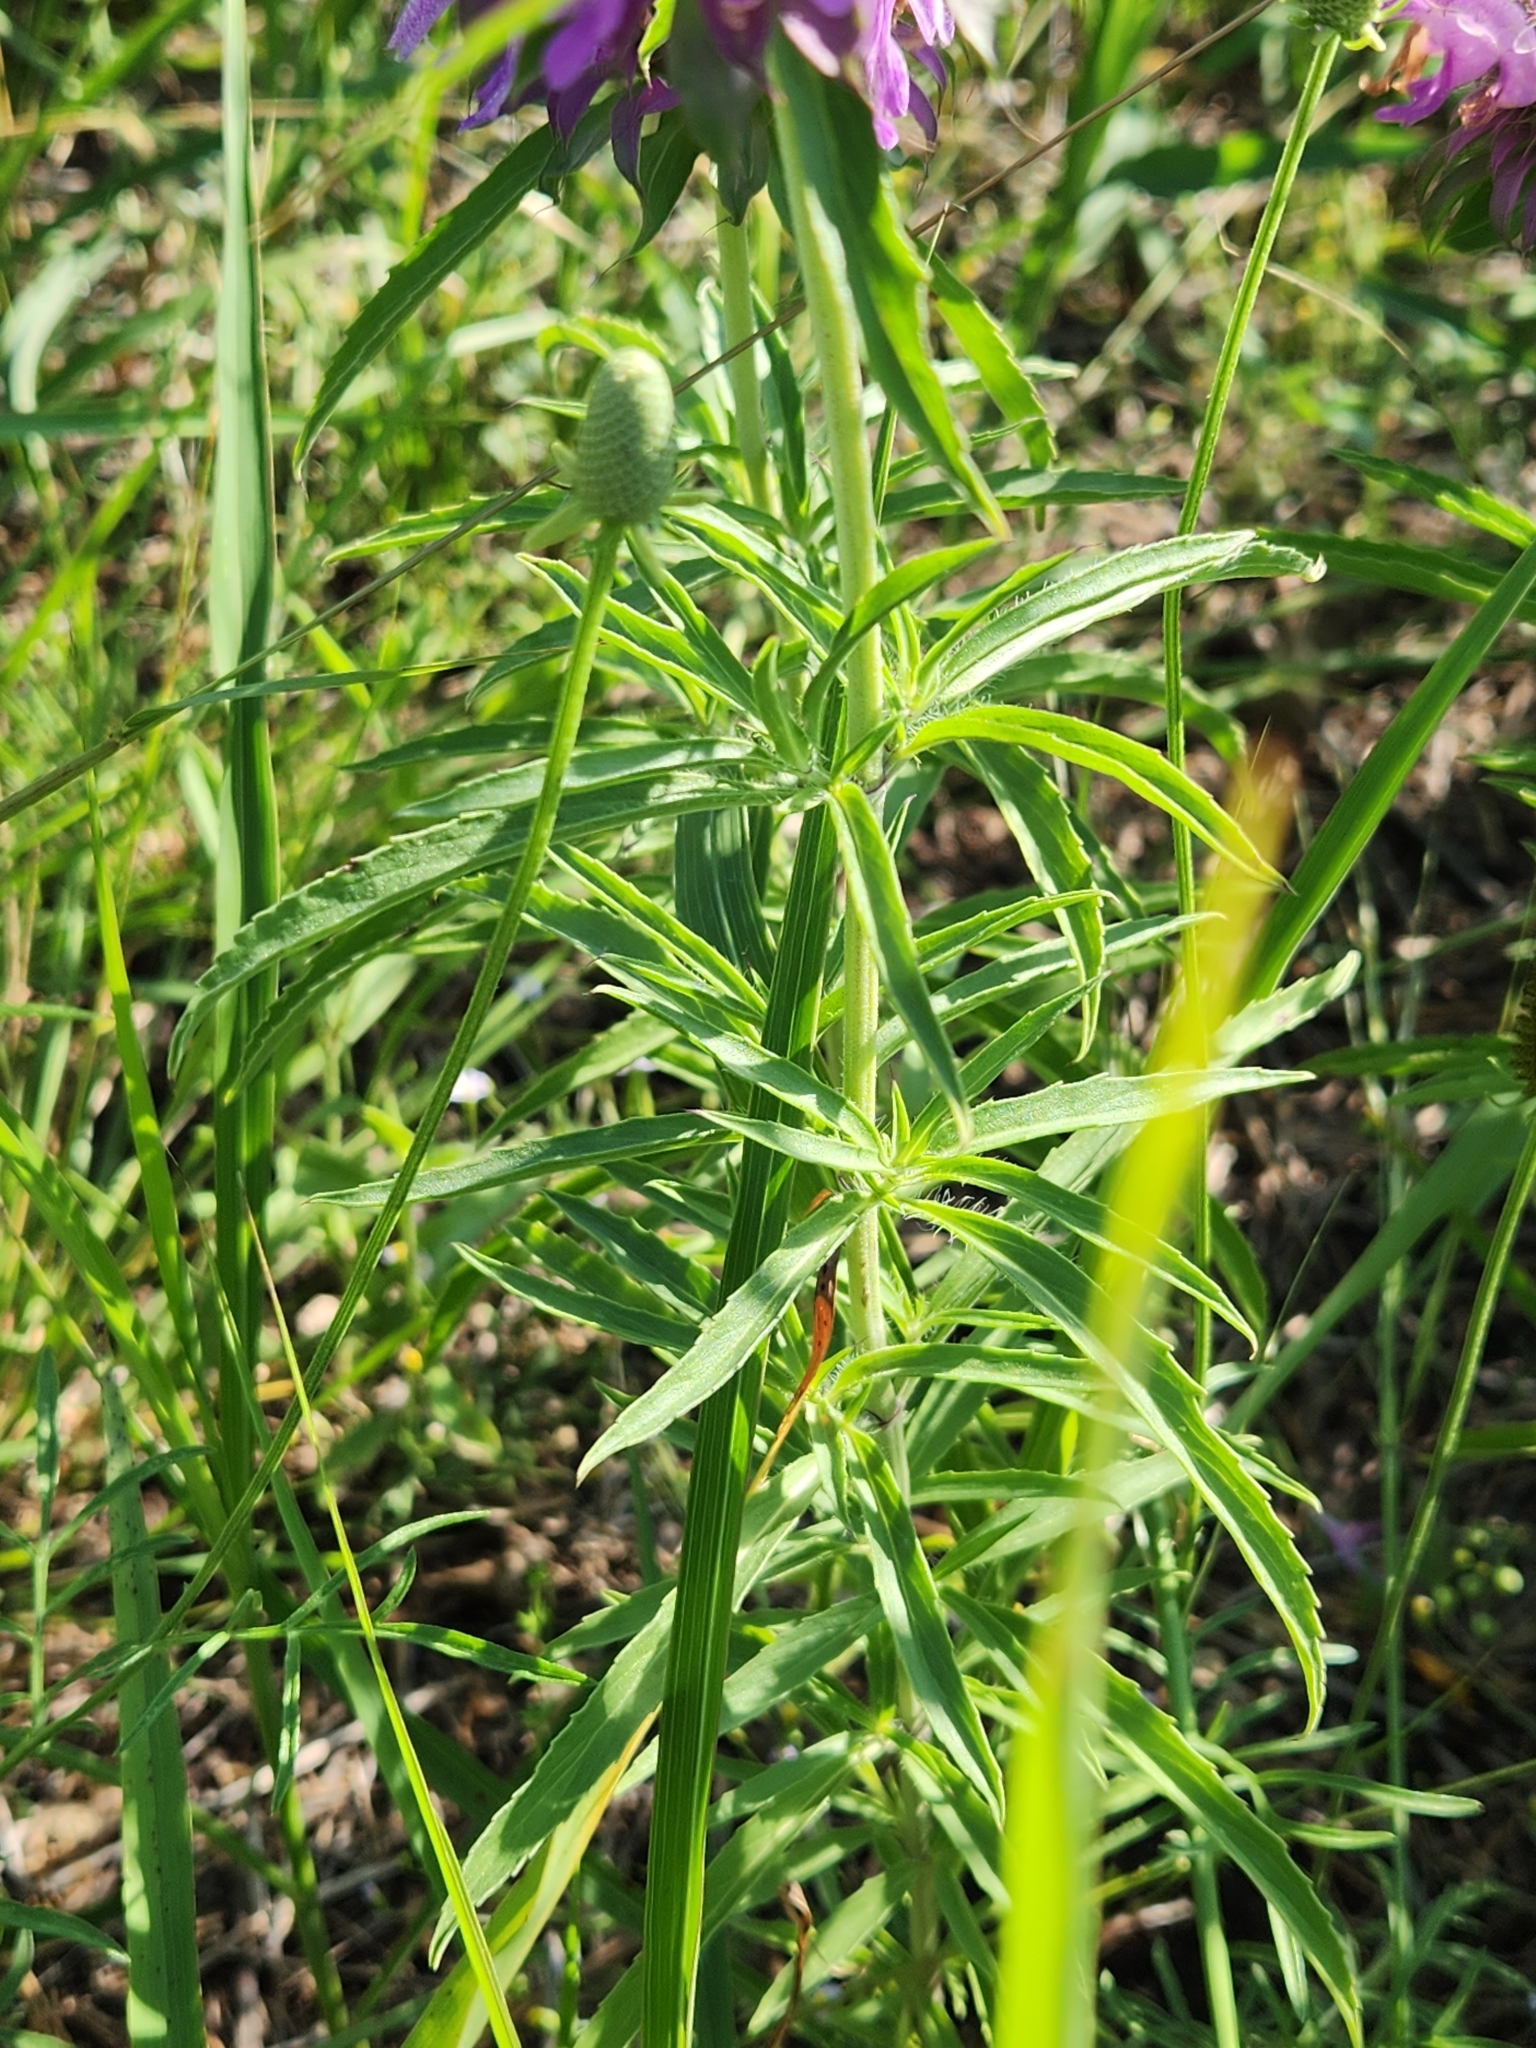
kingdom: Plantae
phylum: Tracheophyta
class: Magnoliopsida
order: Lamiales
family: Lamiaceae
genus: Monarda
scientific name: Monarda citriodora
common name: Lemon beebalm
